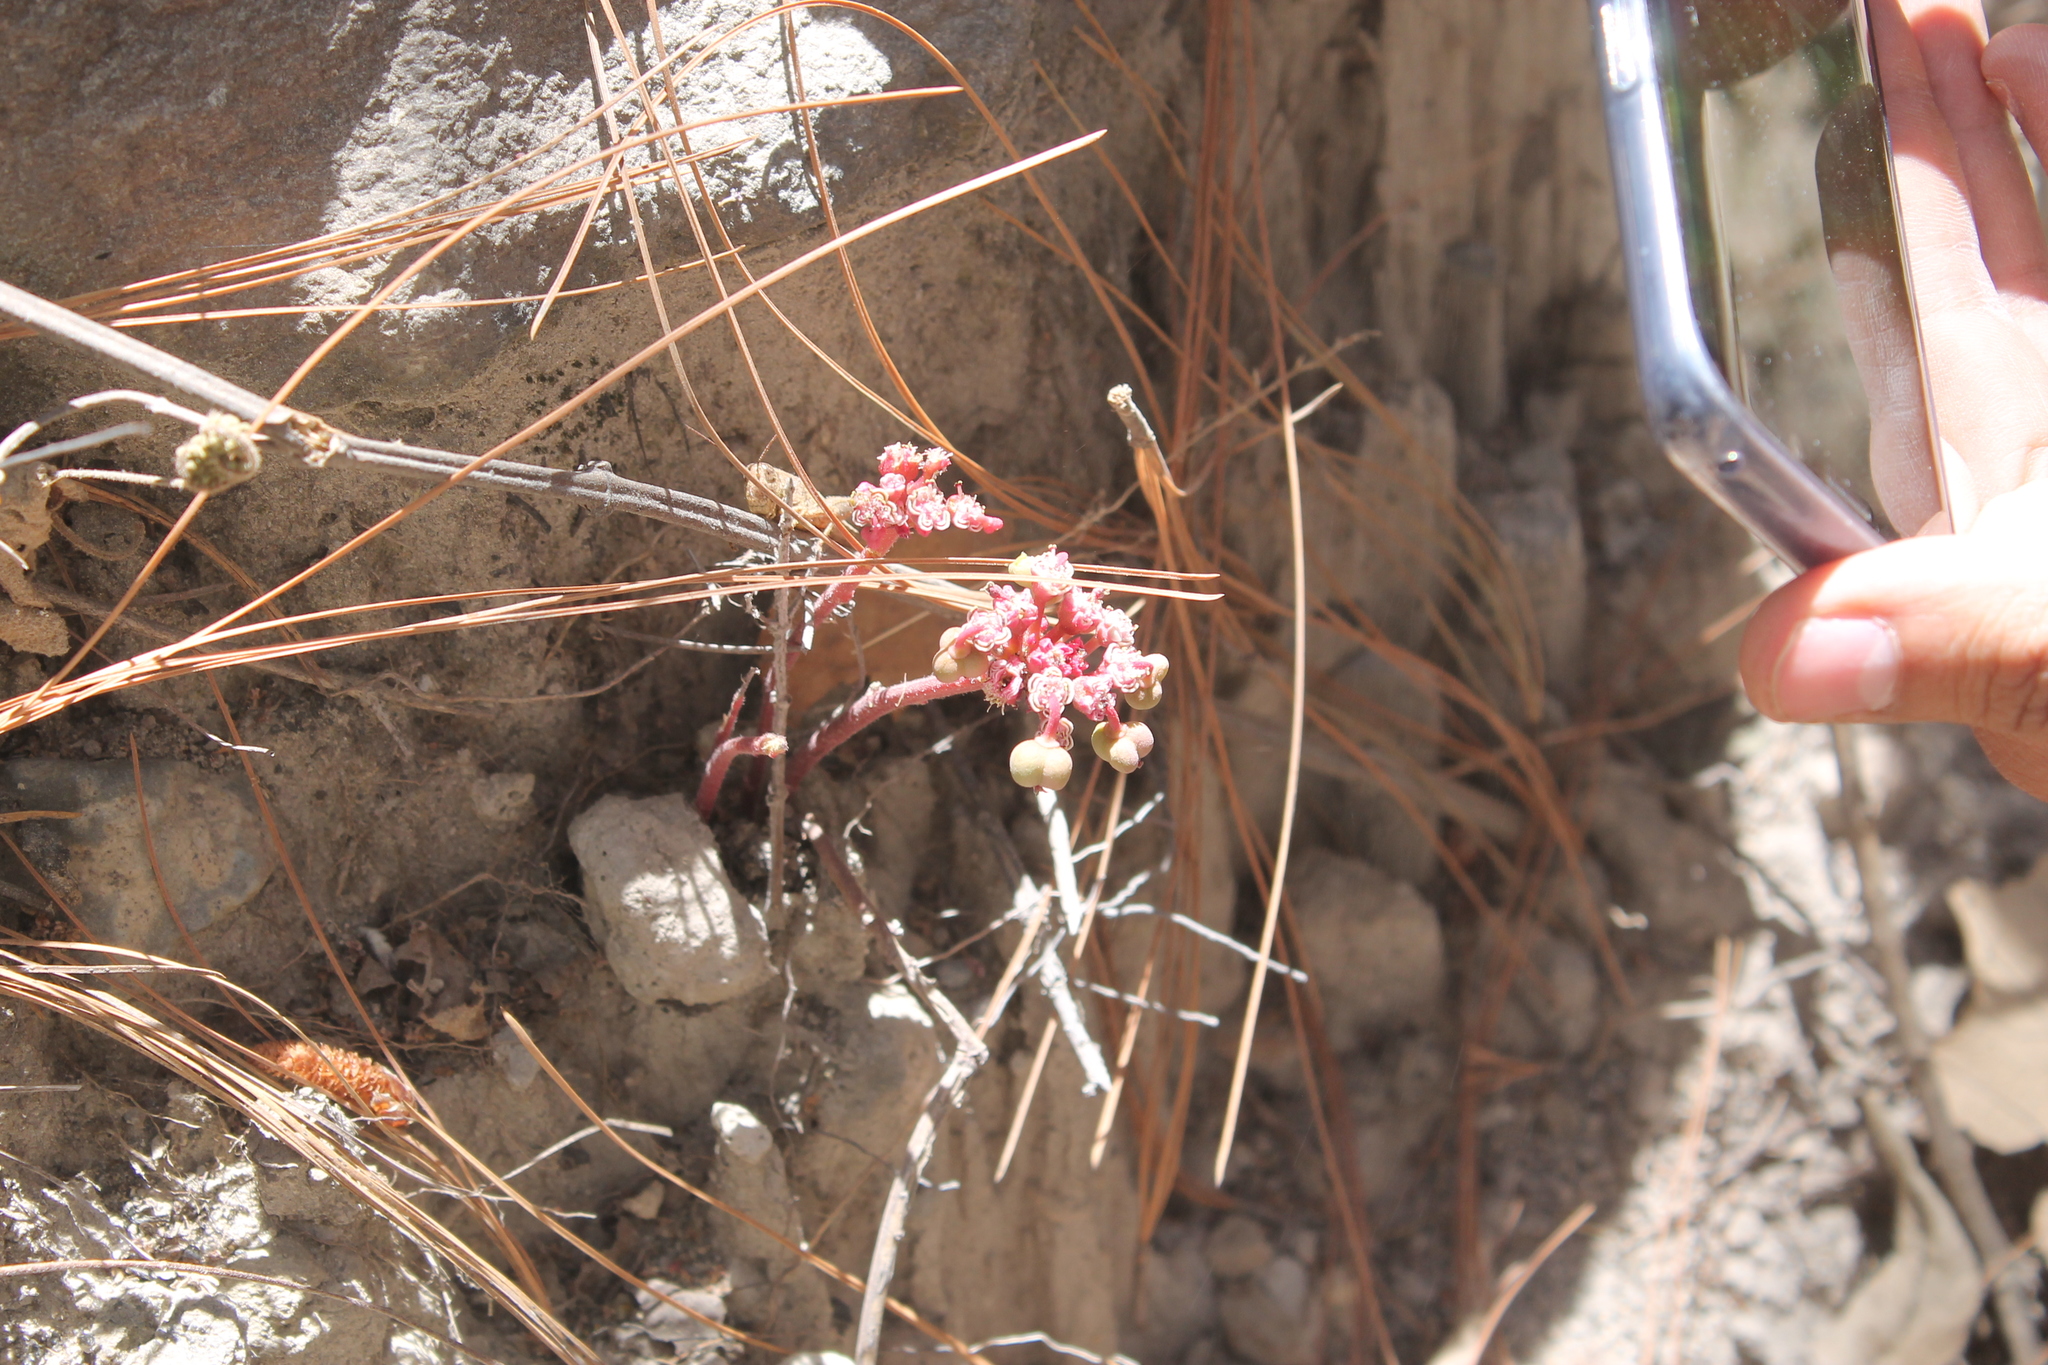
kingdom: Plantae
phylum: Tracheophyta
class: Magnoliopsida
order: Malpighiales
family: Euphorbiaceae
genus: Euphorbia
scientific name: Euphorbia radians
